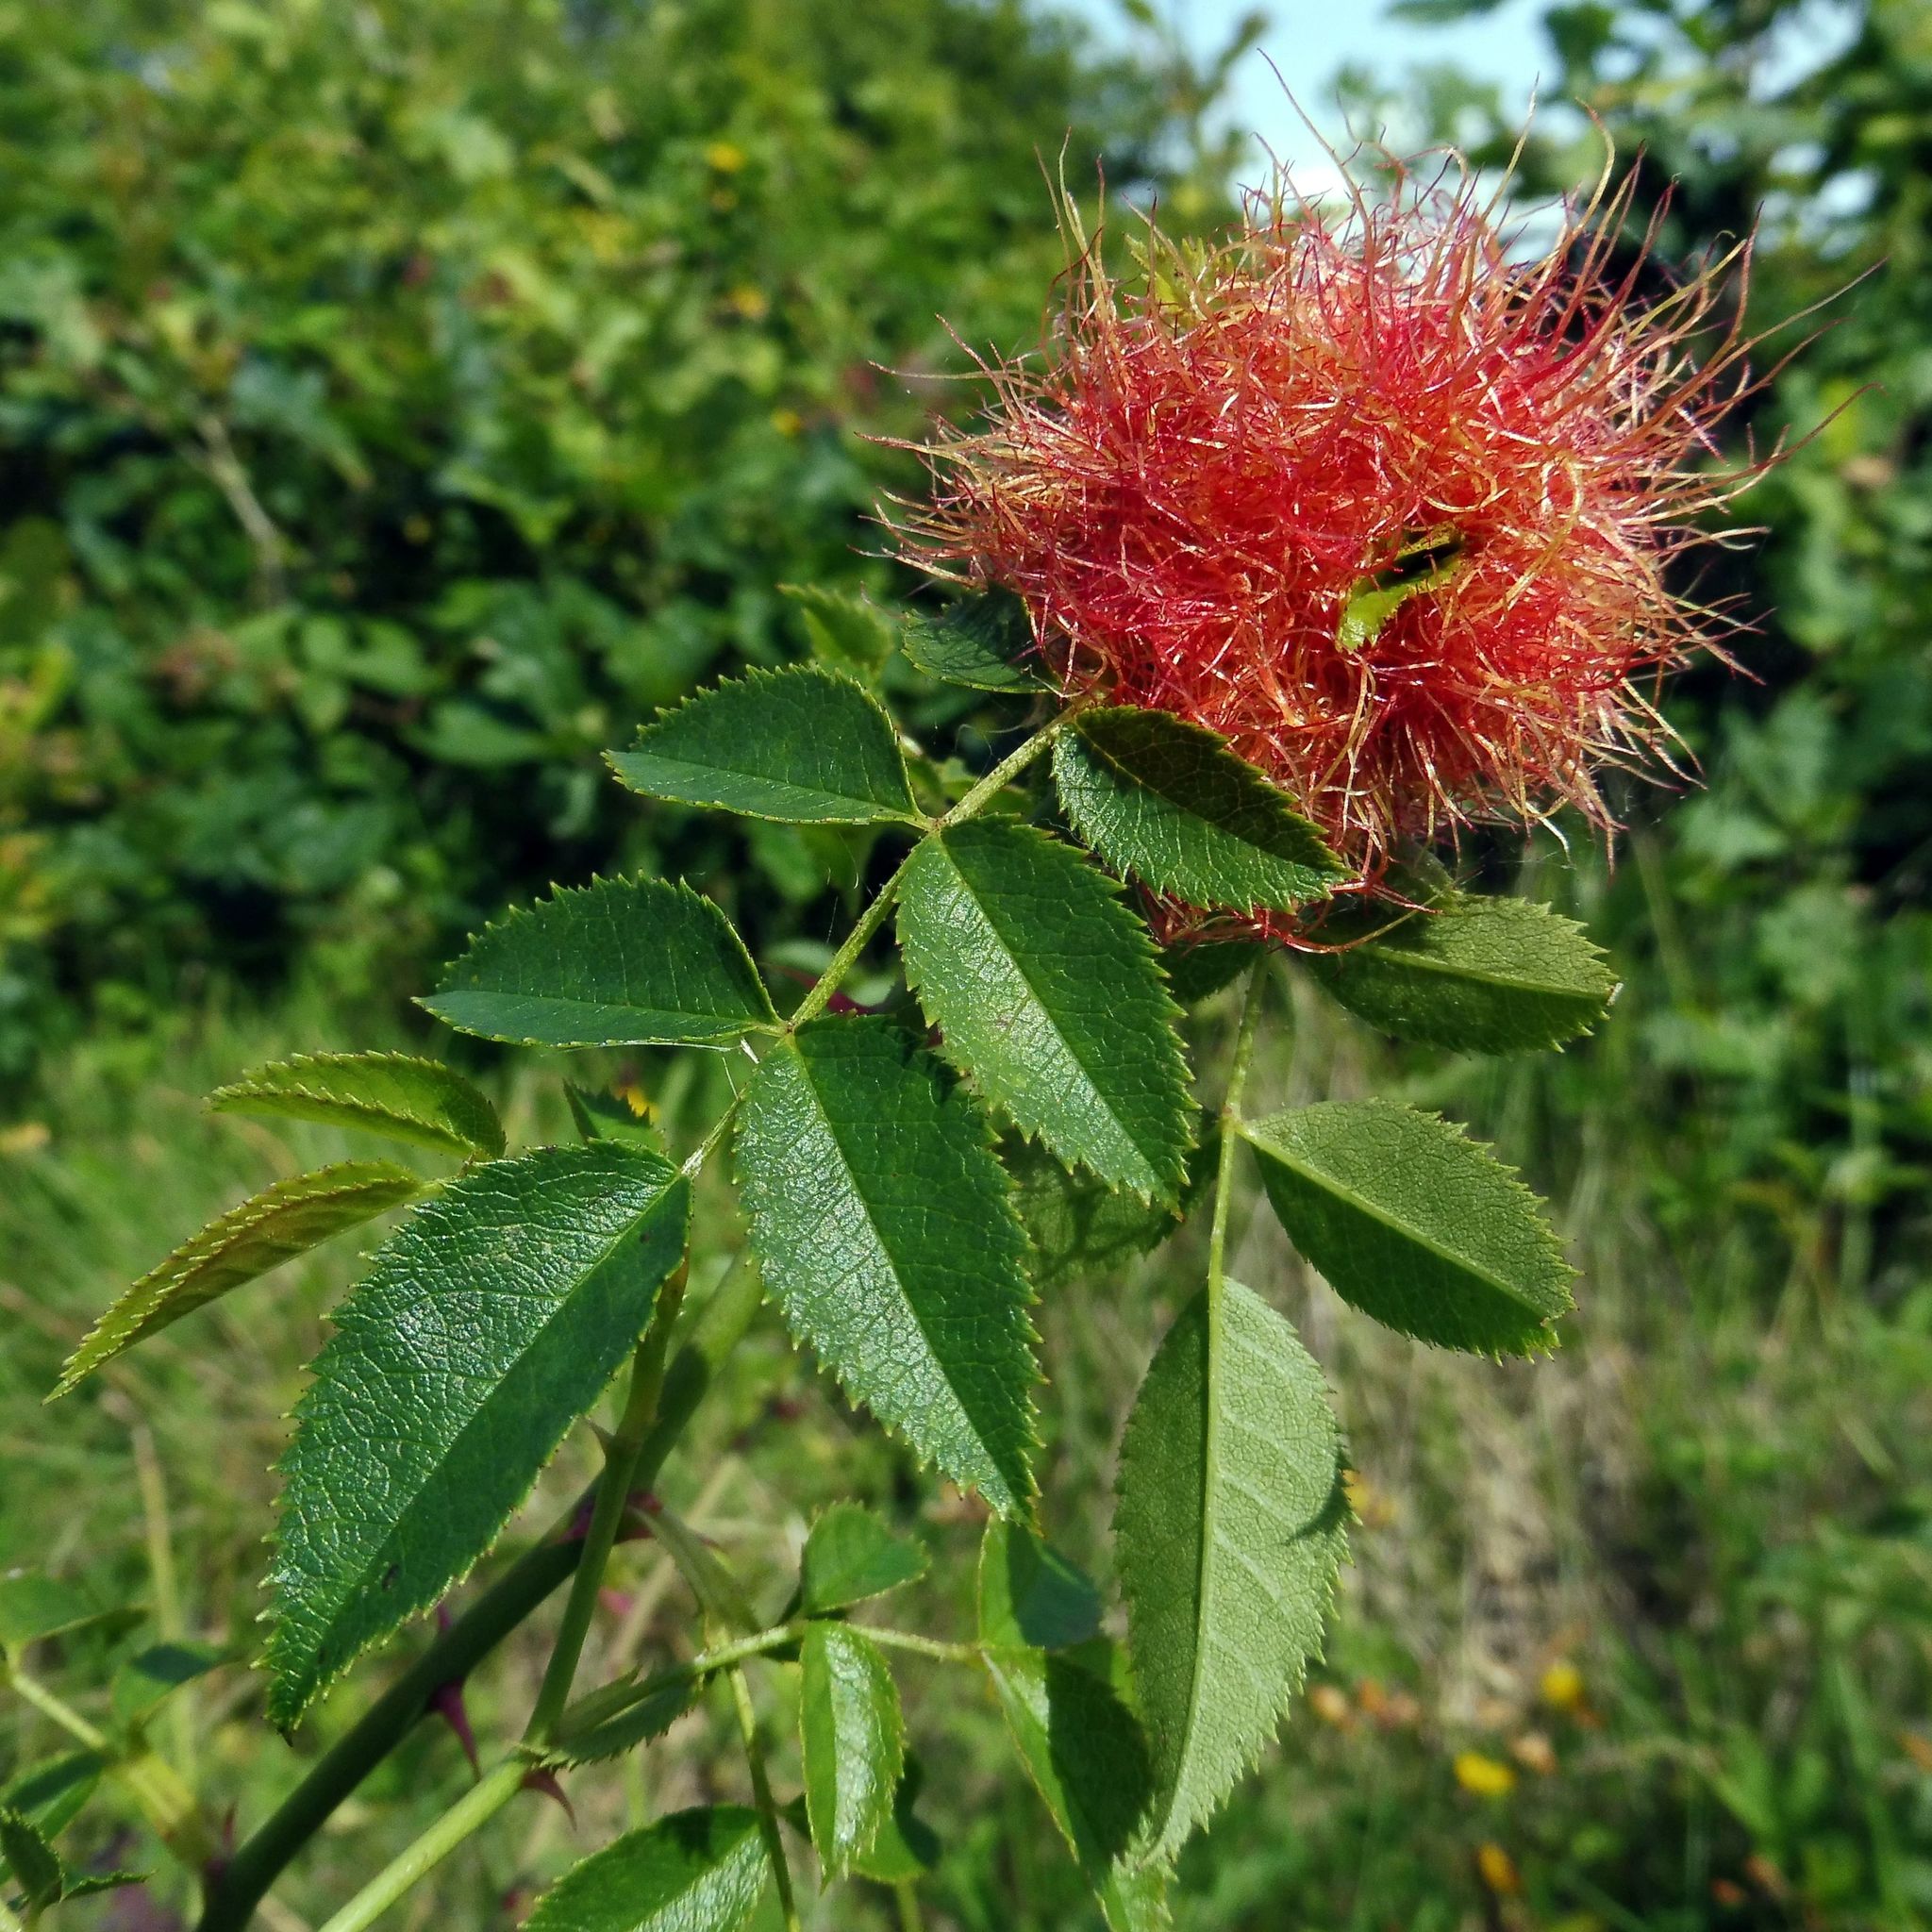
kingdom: Animalia
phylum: Arthropoda
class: Insecta
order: Hymenoptera
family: Cynipidae
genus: Diplolepis
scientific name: Diplolepis rosae
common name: Bedeguar gall
